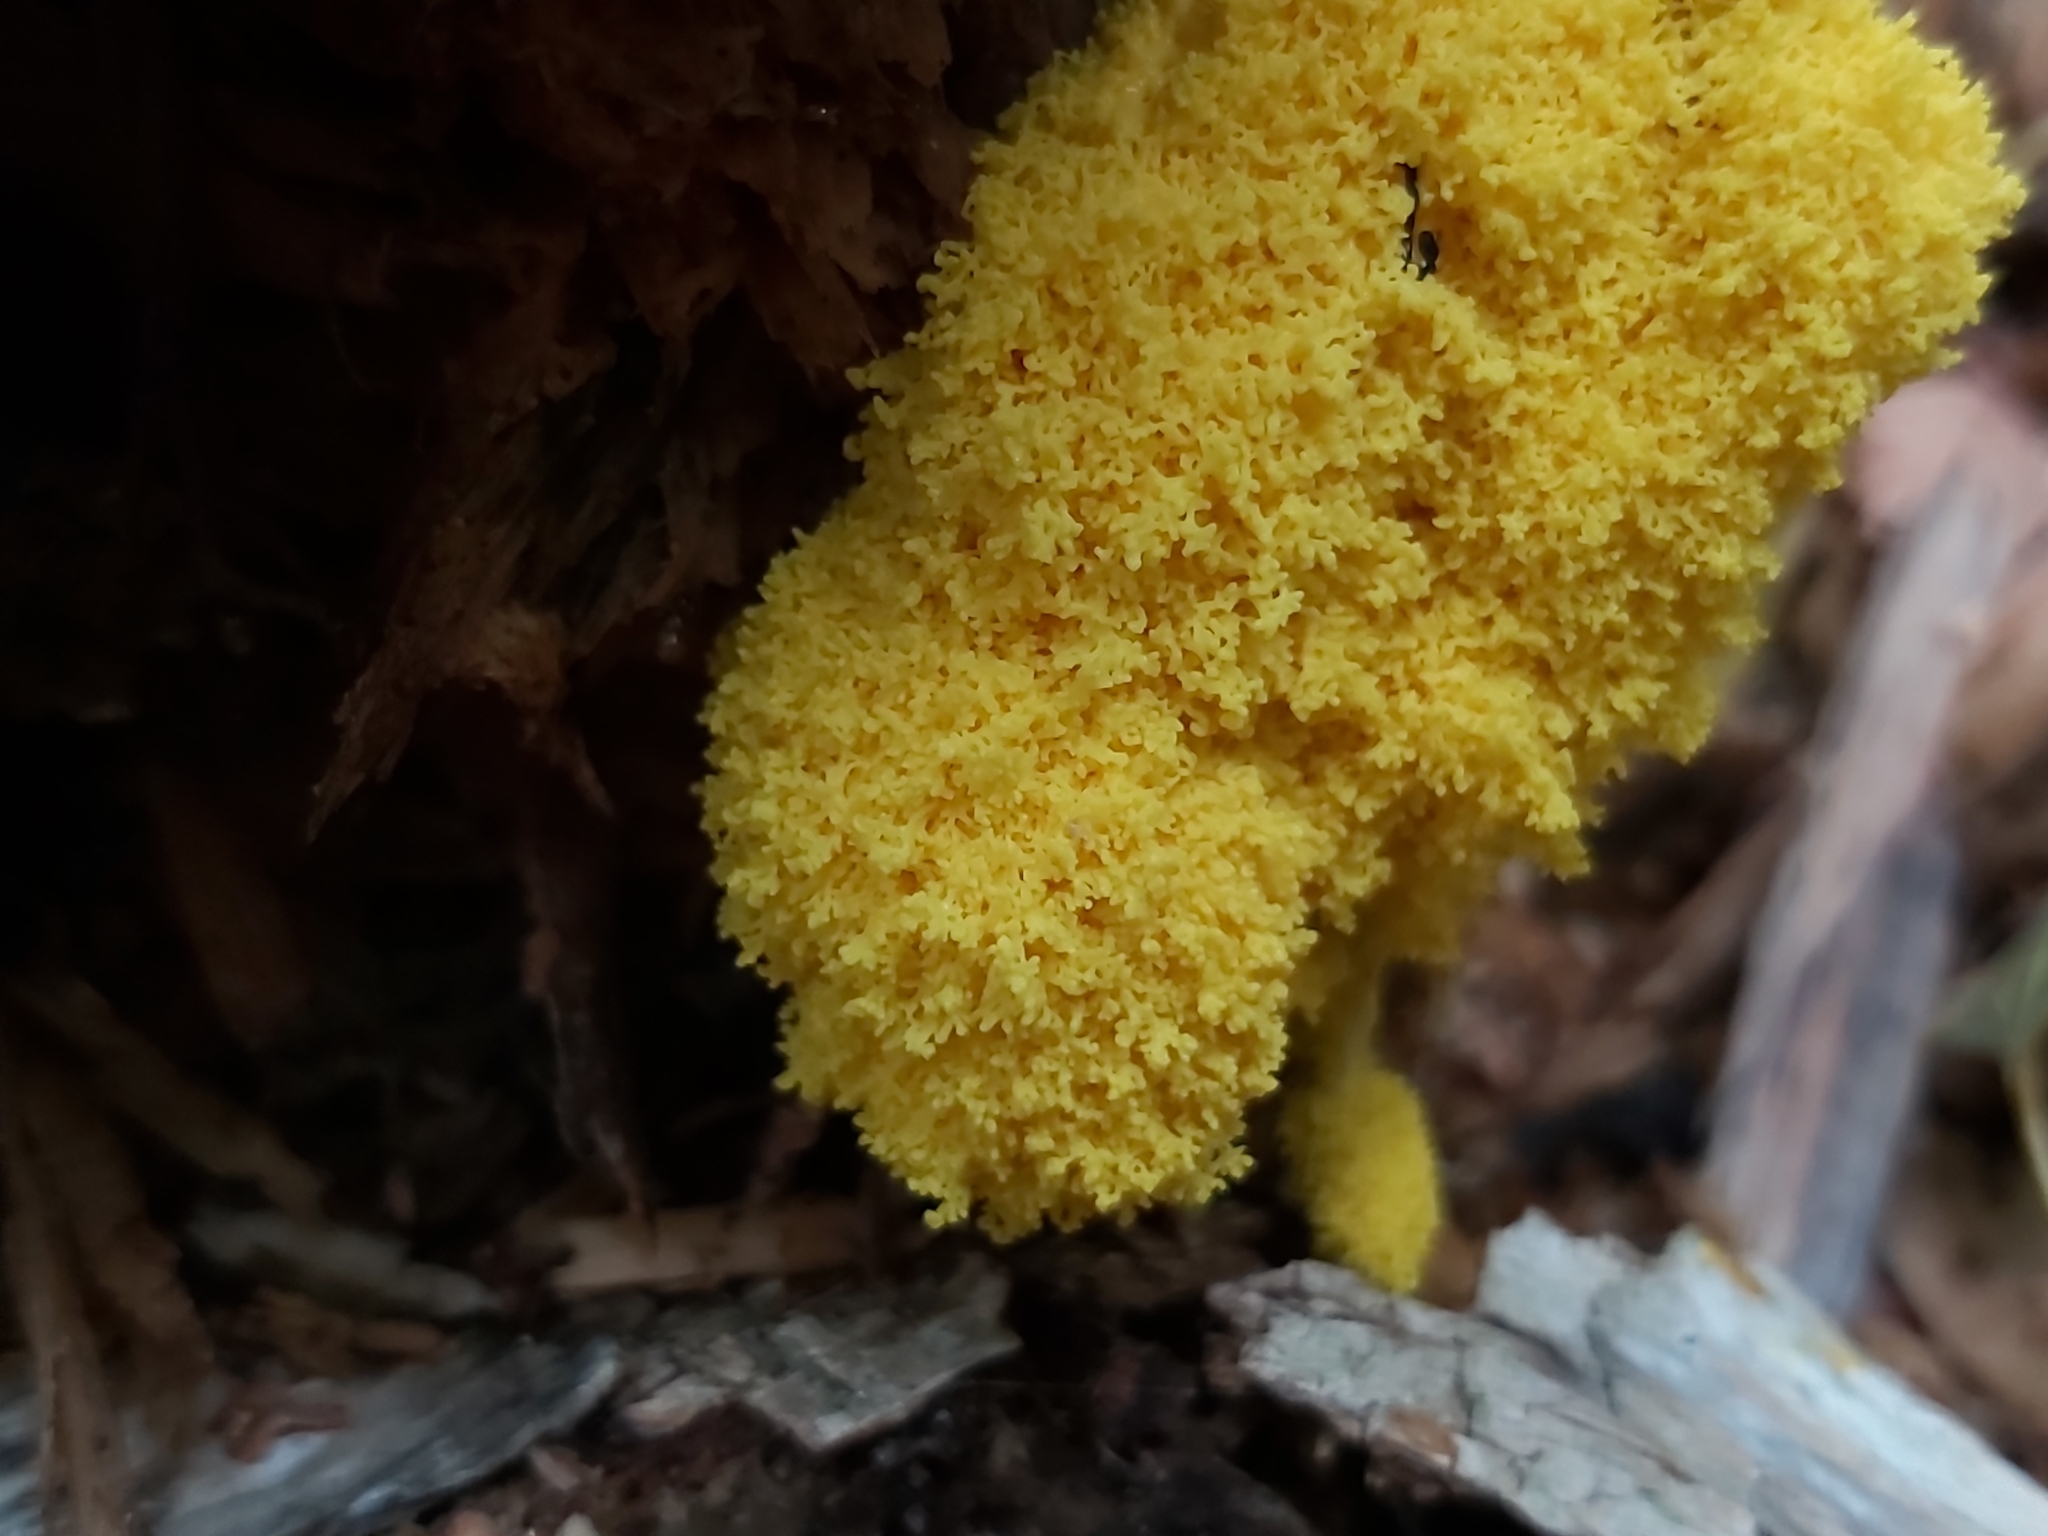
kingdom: Protozoa
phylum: Mycetozoa
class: Myxomycetes
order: Physarales
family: Physaraceae
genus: Fuligo
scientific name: Fuligo septica
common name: Dog vomit slime mold
